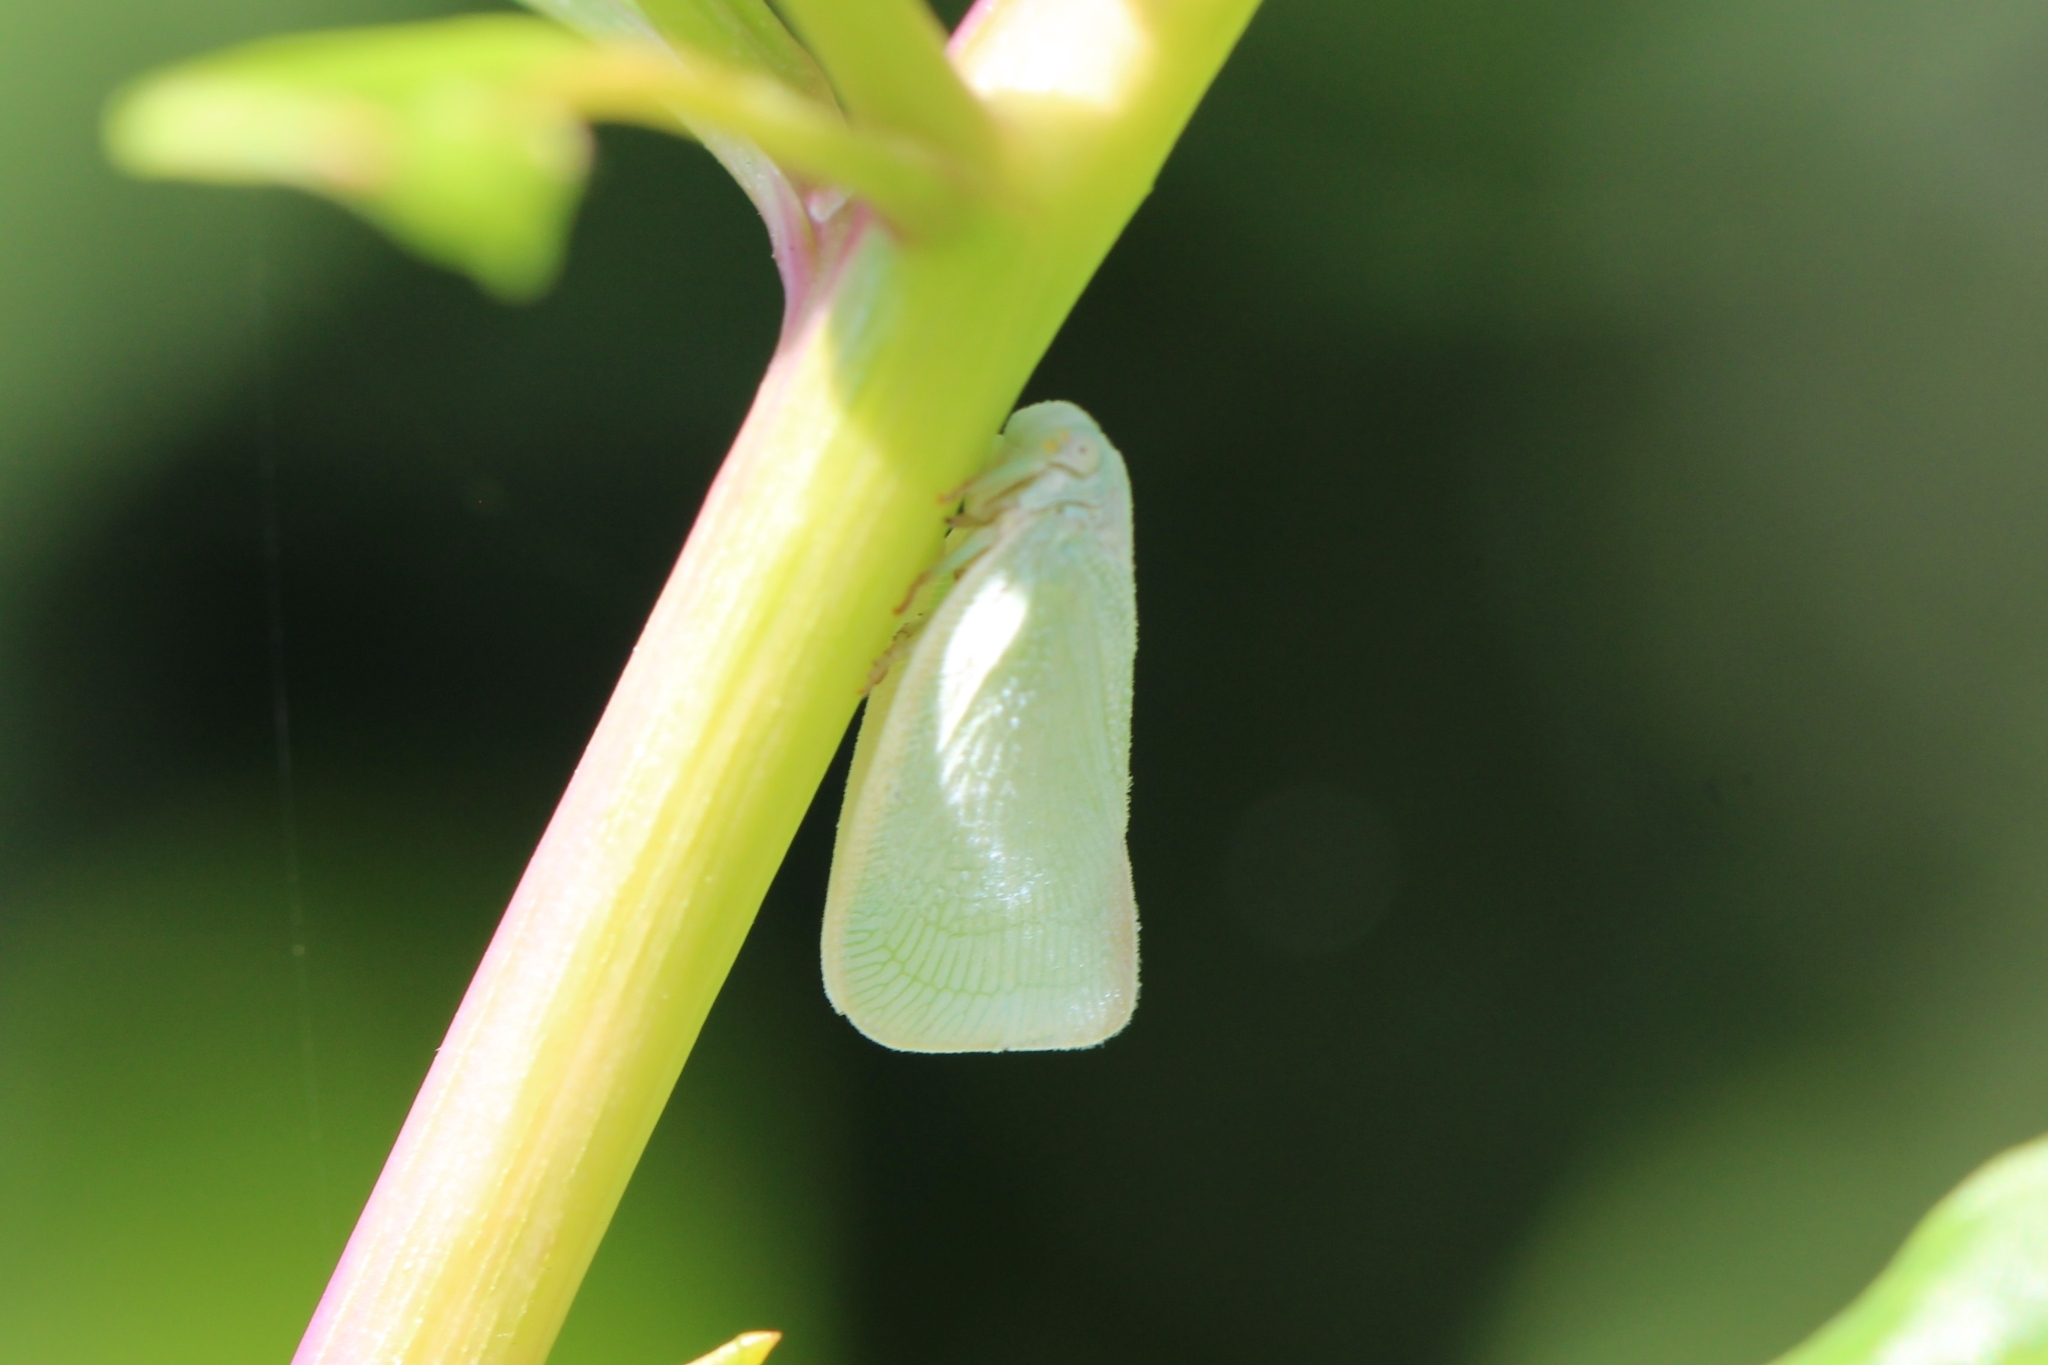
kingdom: Animalia
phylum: Arthropoda
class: Insecta
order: Hemiptera
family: Flatidae
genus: Flatormenis
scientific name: Flatormenis proxima
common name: Northern flatid planthopper
